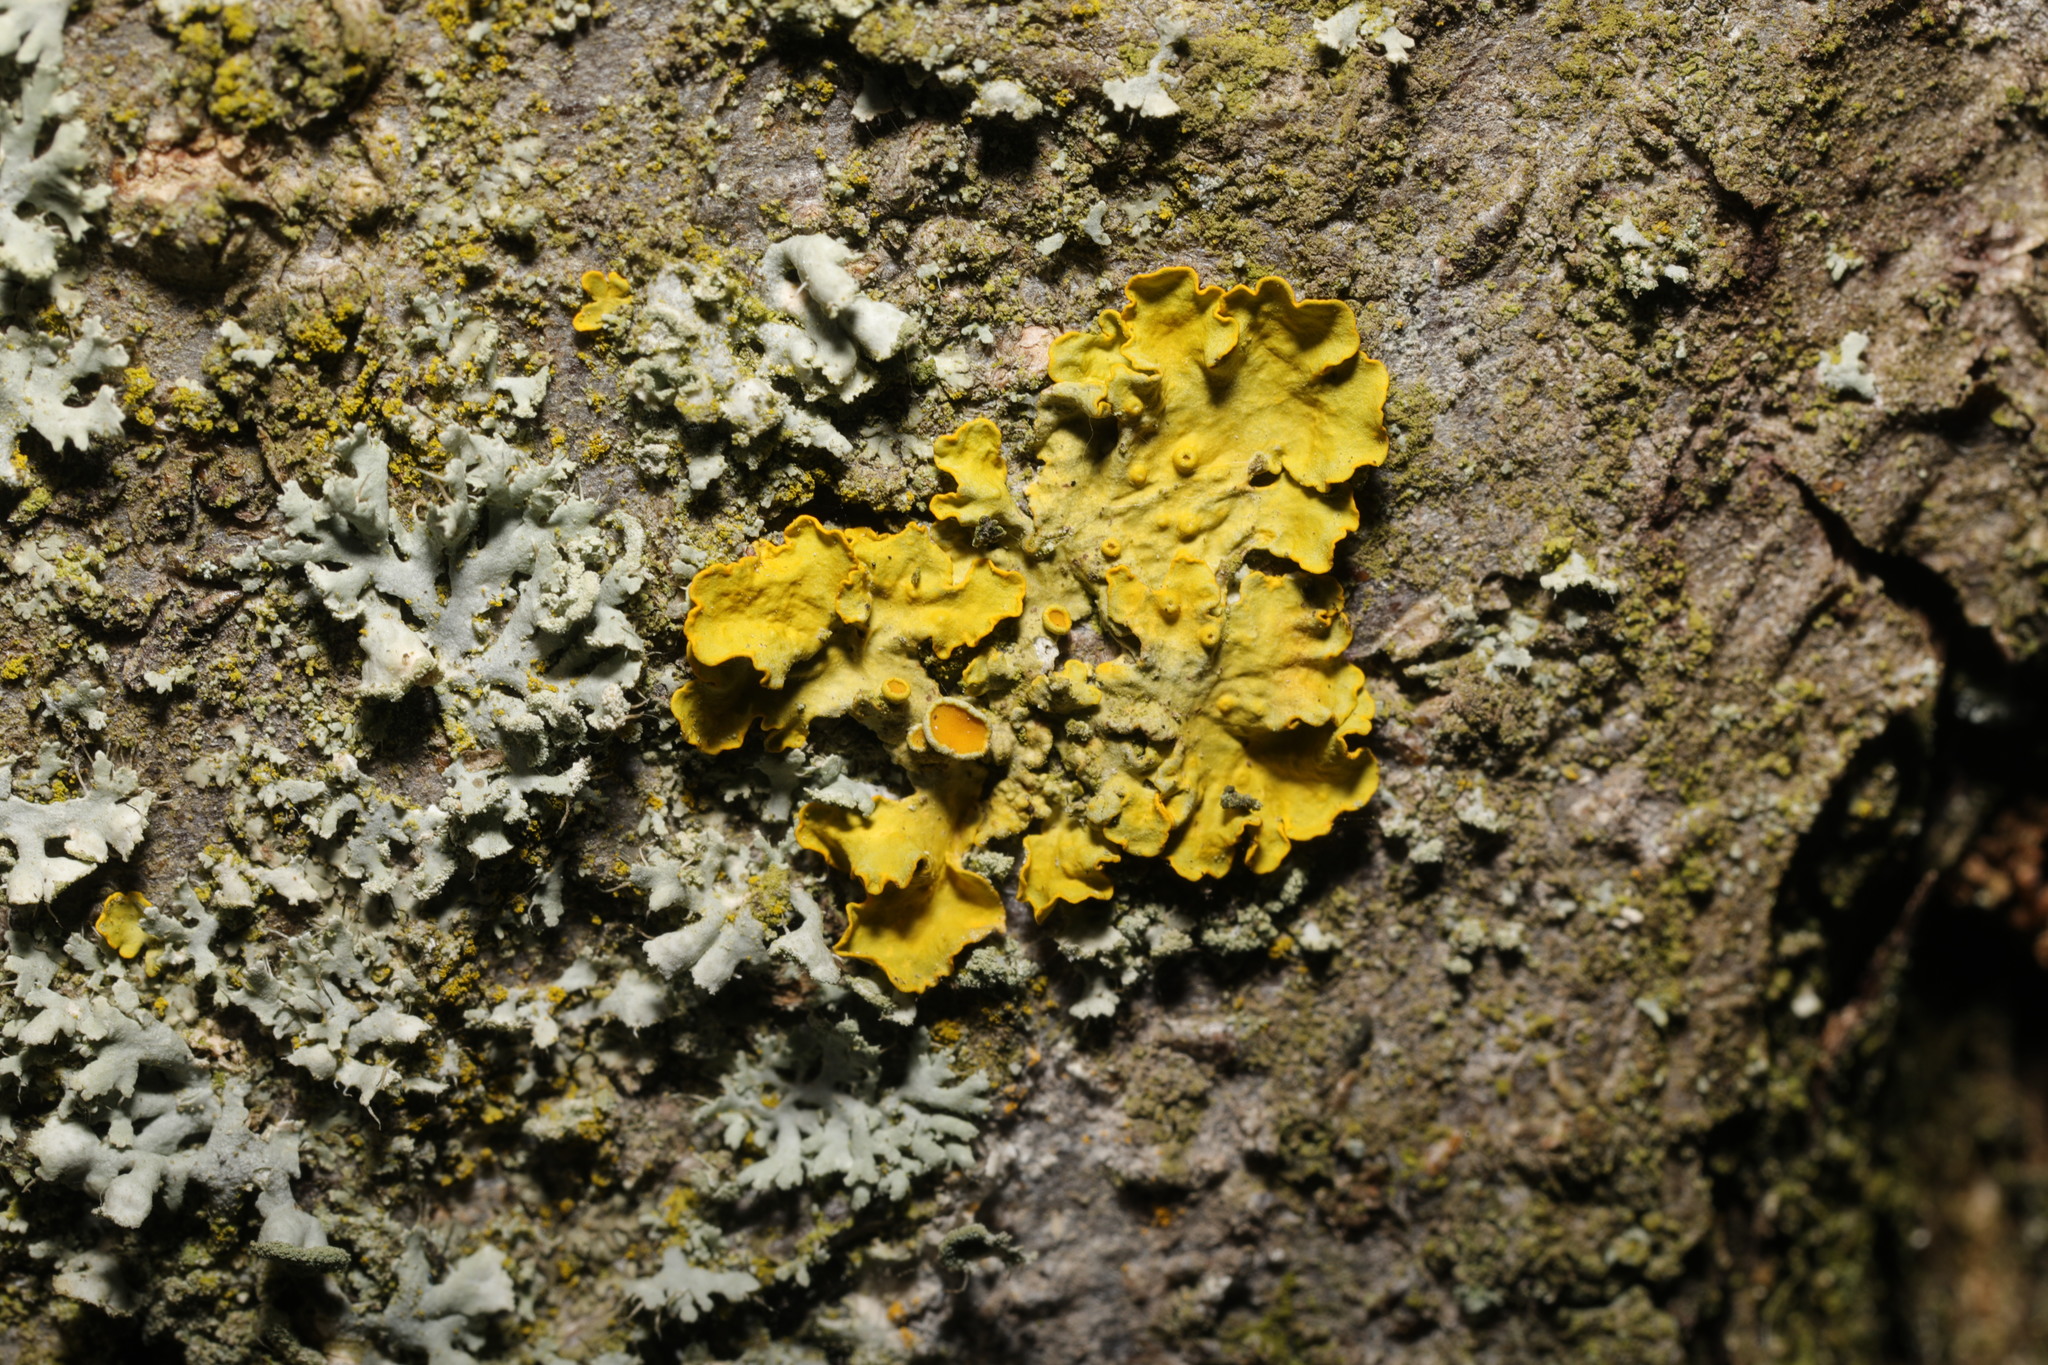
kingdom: Fungi
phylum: Ascomycota
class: Lecanoromycetes
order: Teloschistales
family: Teloschistaceae
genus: Xanthoria
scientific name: Xanthoria parietina
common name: Common orange lichen
